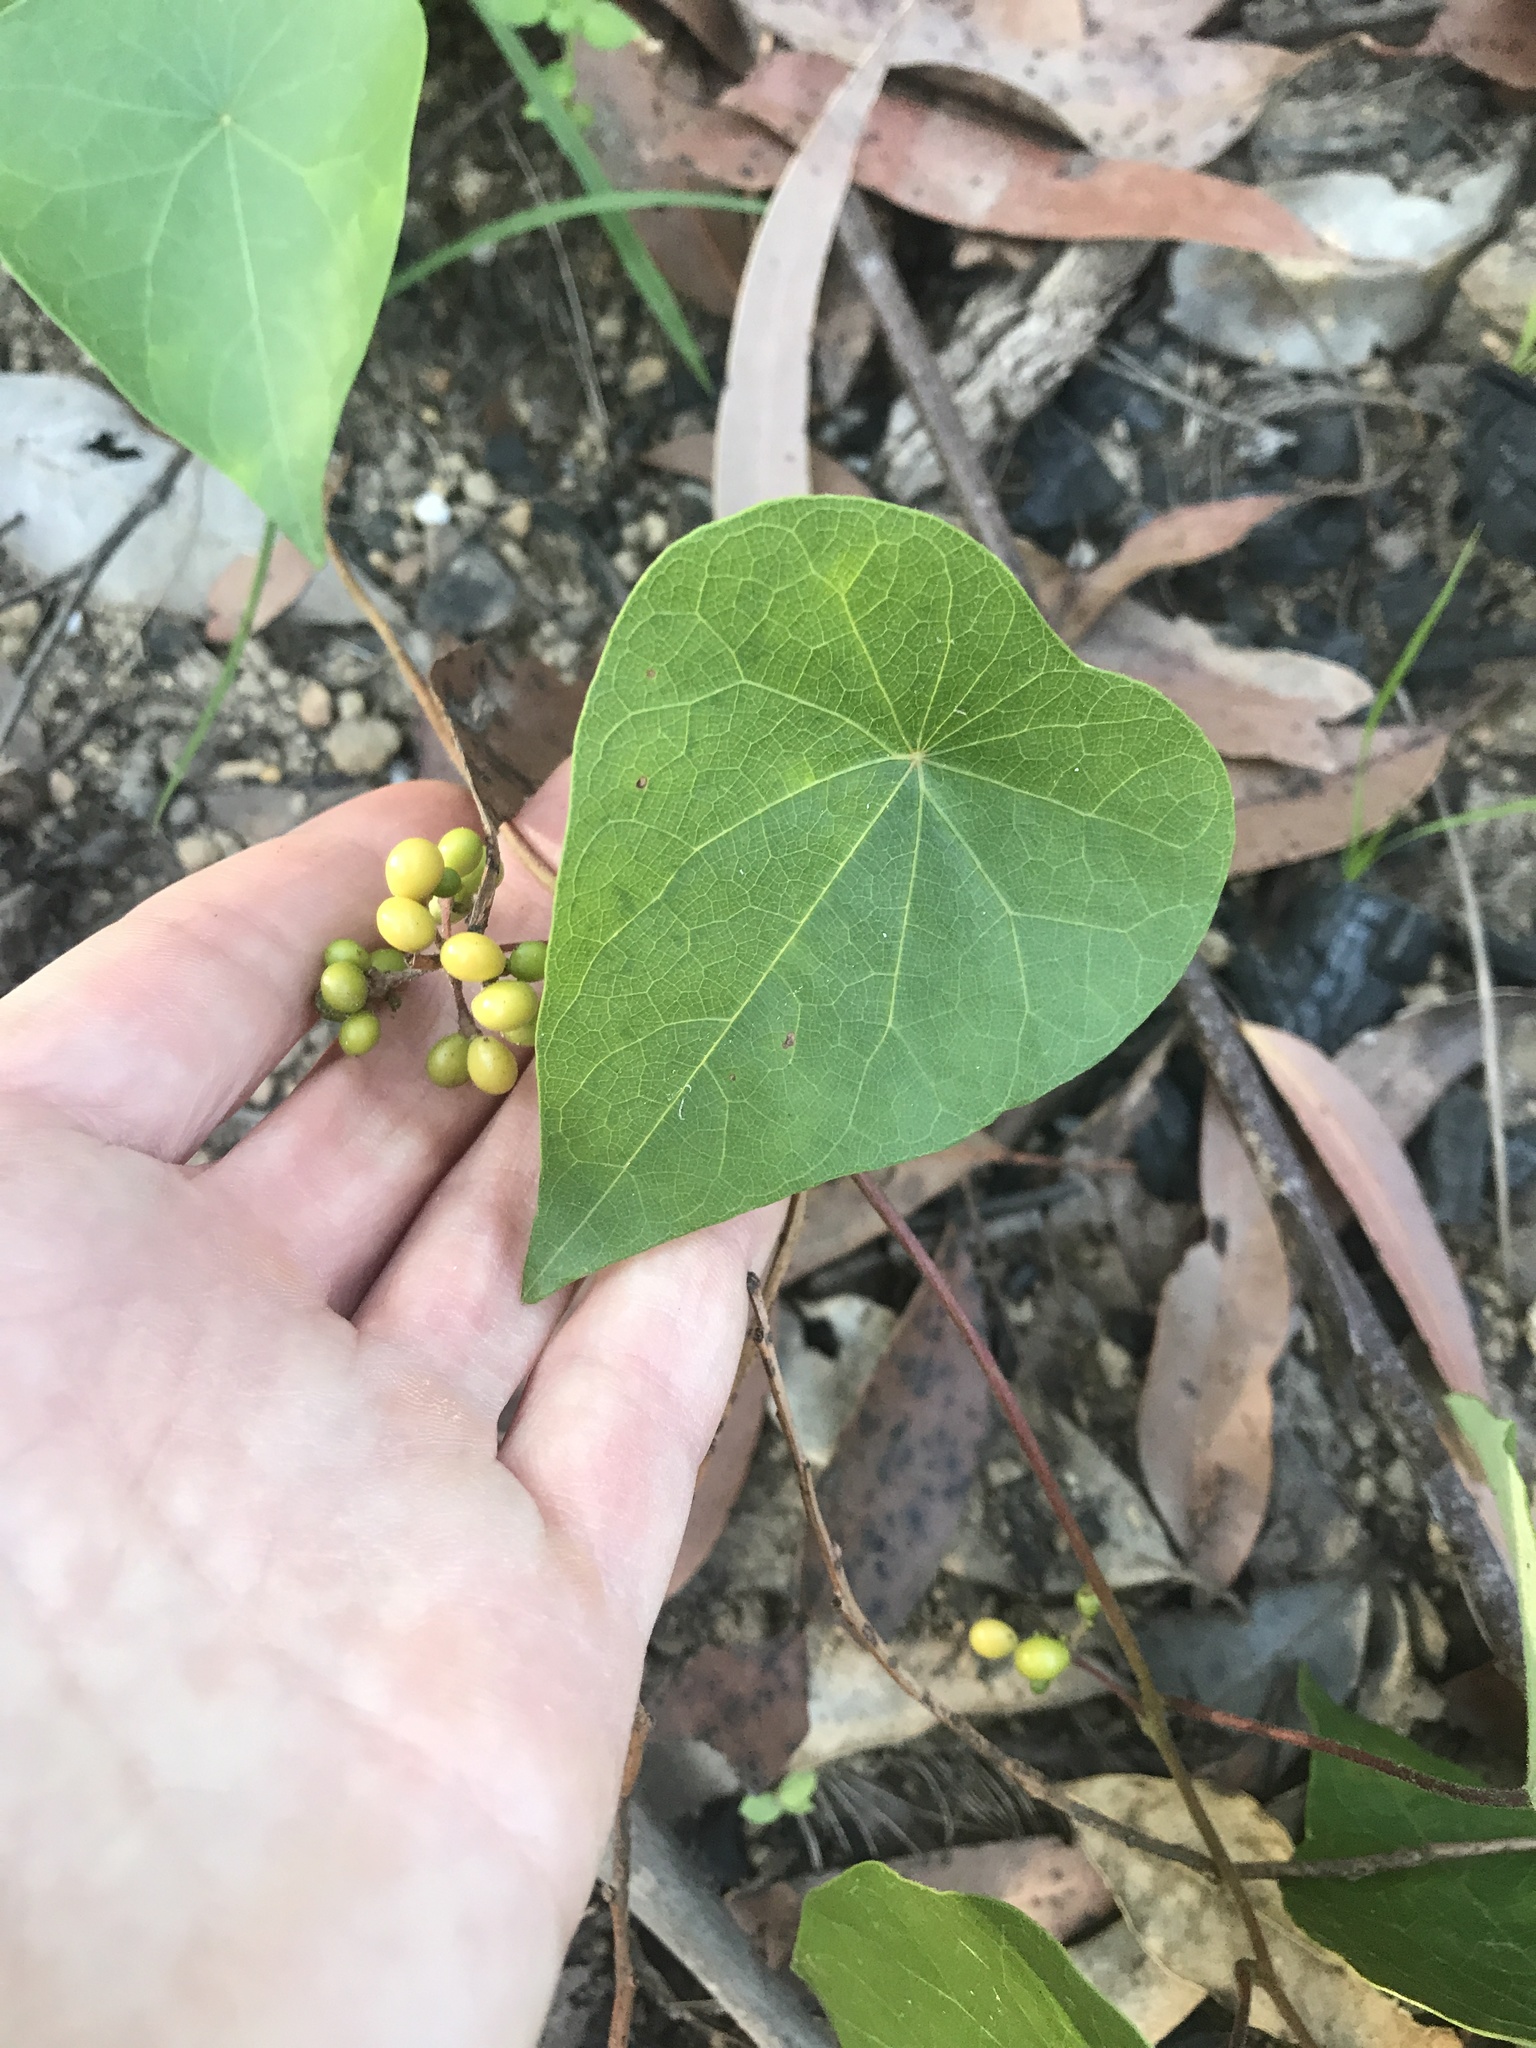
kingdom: Plantae
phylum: Tracheophyta
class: Magnoliopsida
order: Ranunculales
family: Menispermaceae
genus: Stephania
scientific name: Stephania japonica
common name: Snake vine
